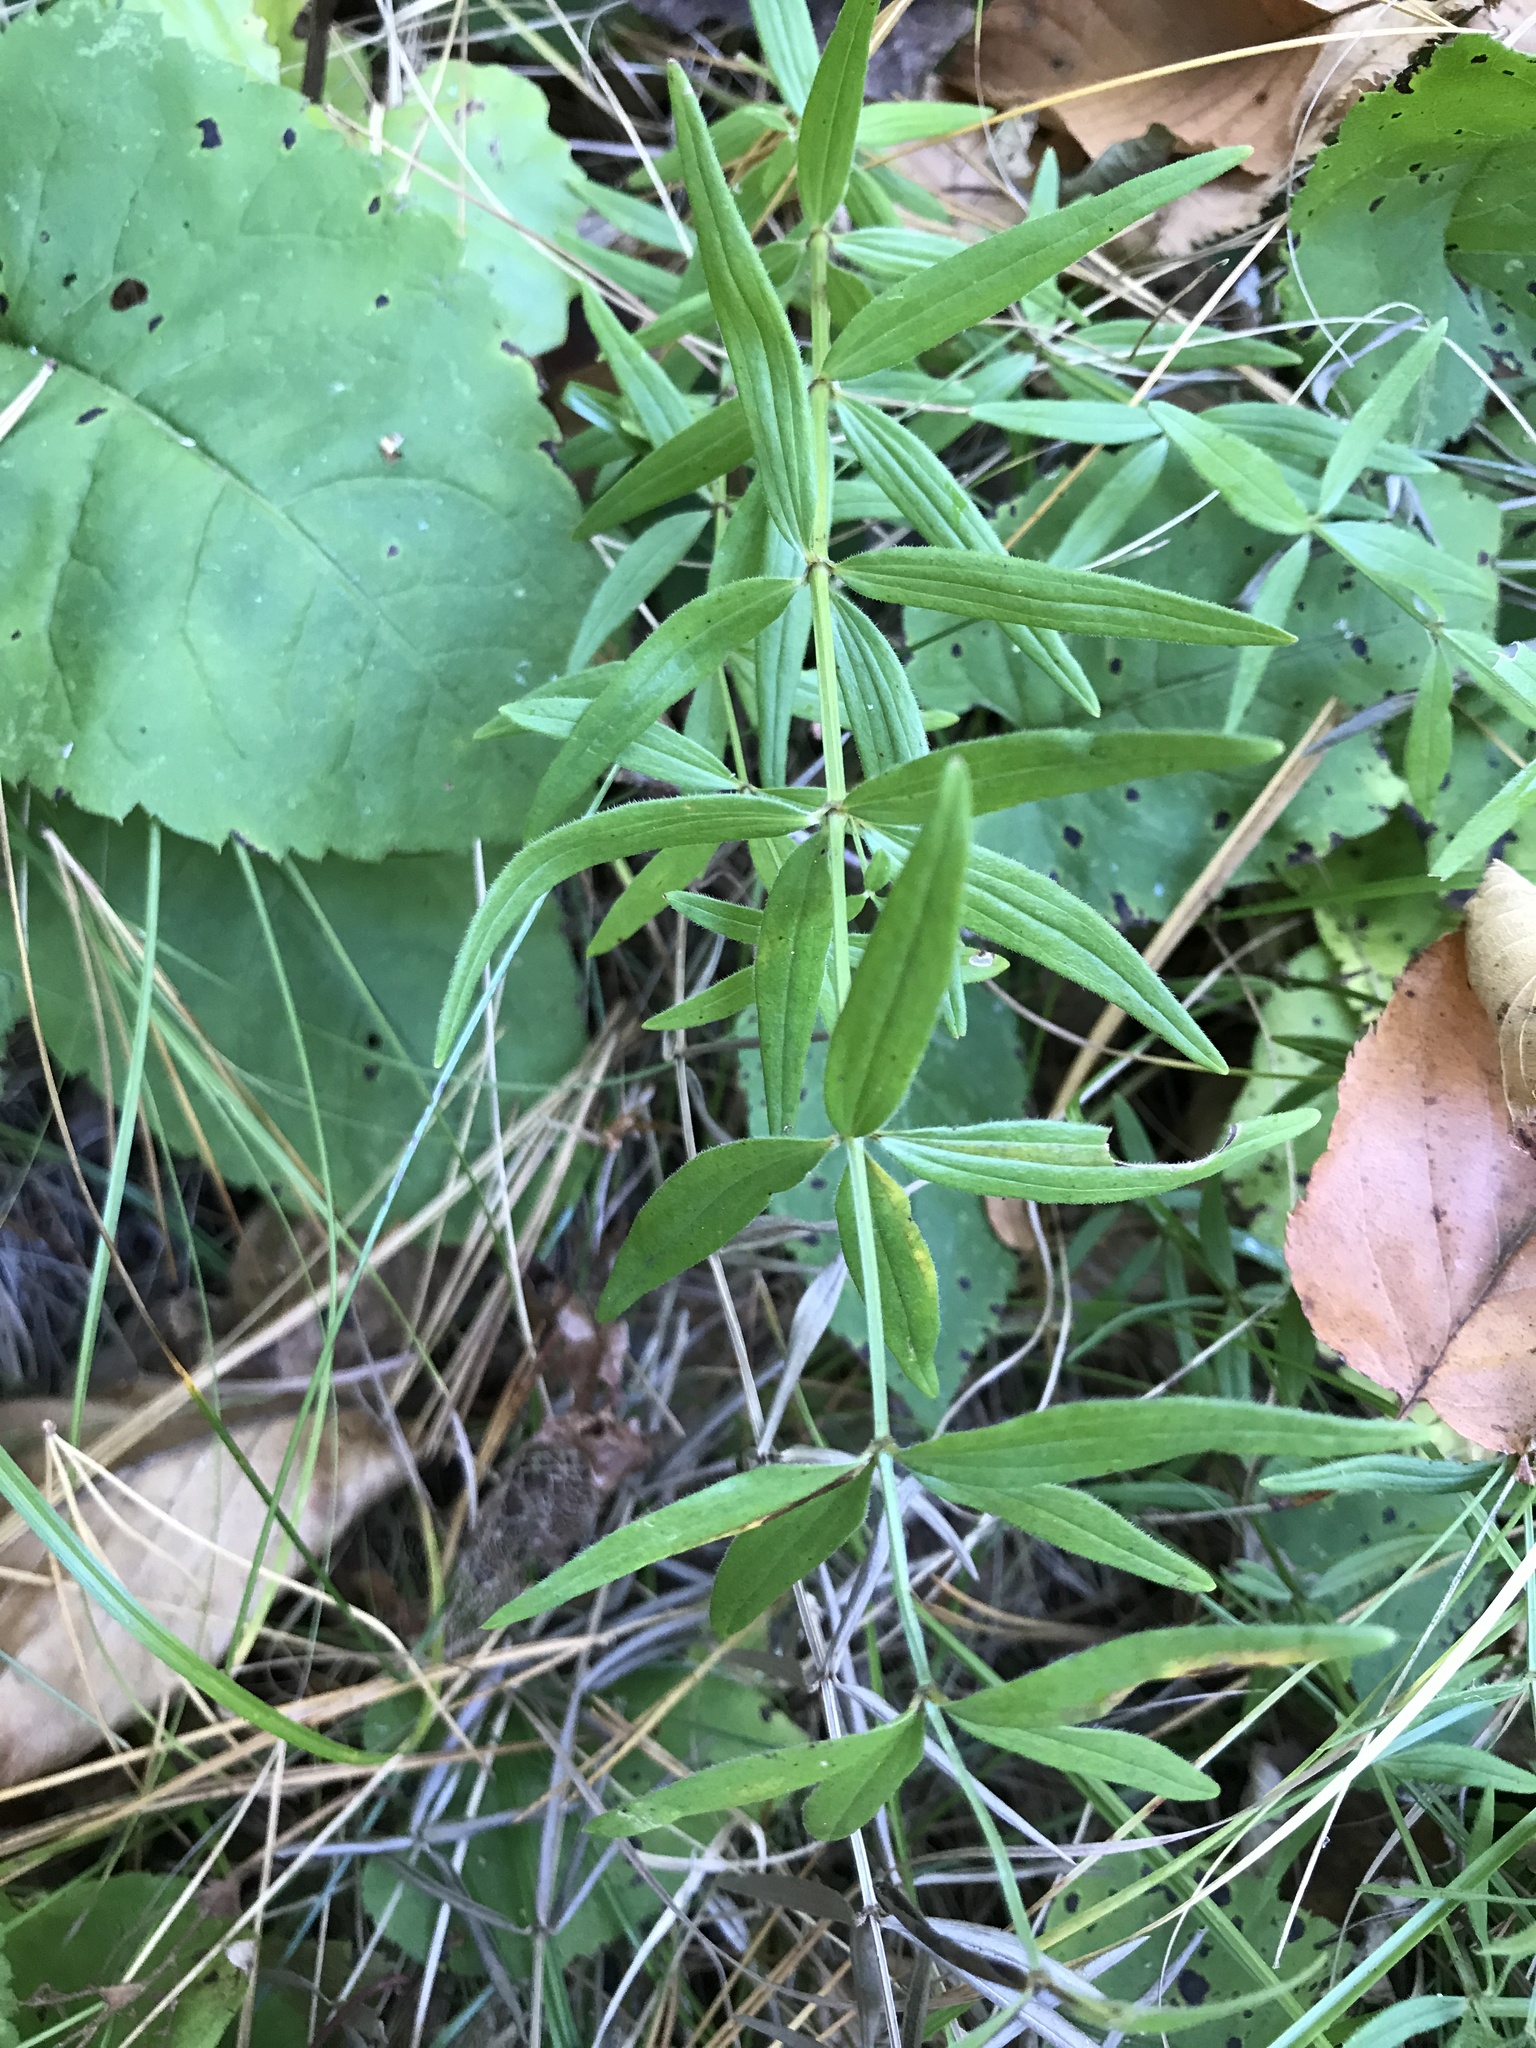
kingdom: Plantae
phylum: Tracheophyta
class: Magnoliopsida
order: Gentianales
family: Rubiaceae
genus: Galium
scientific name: Galium boreale
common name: Northern bedstraw
